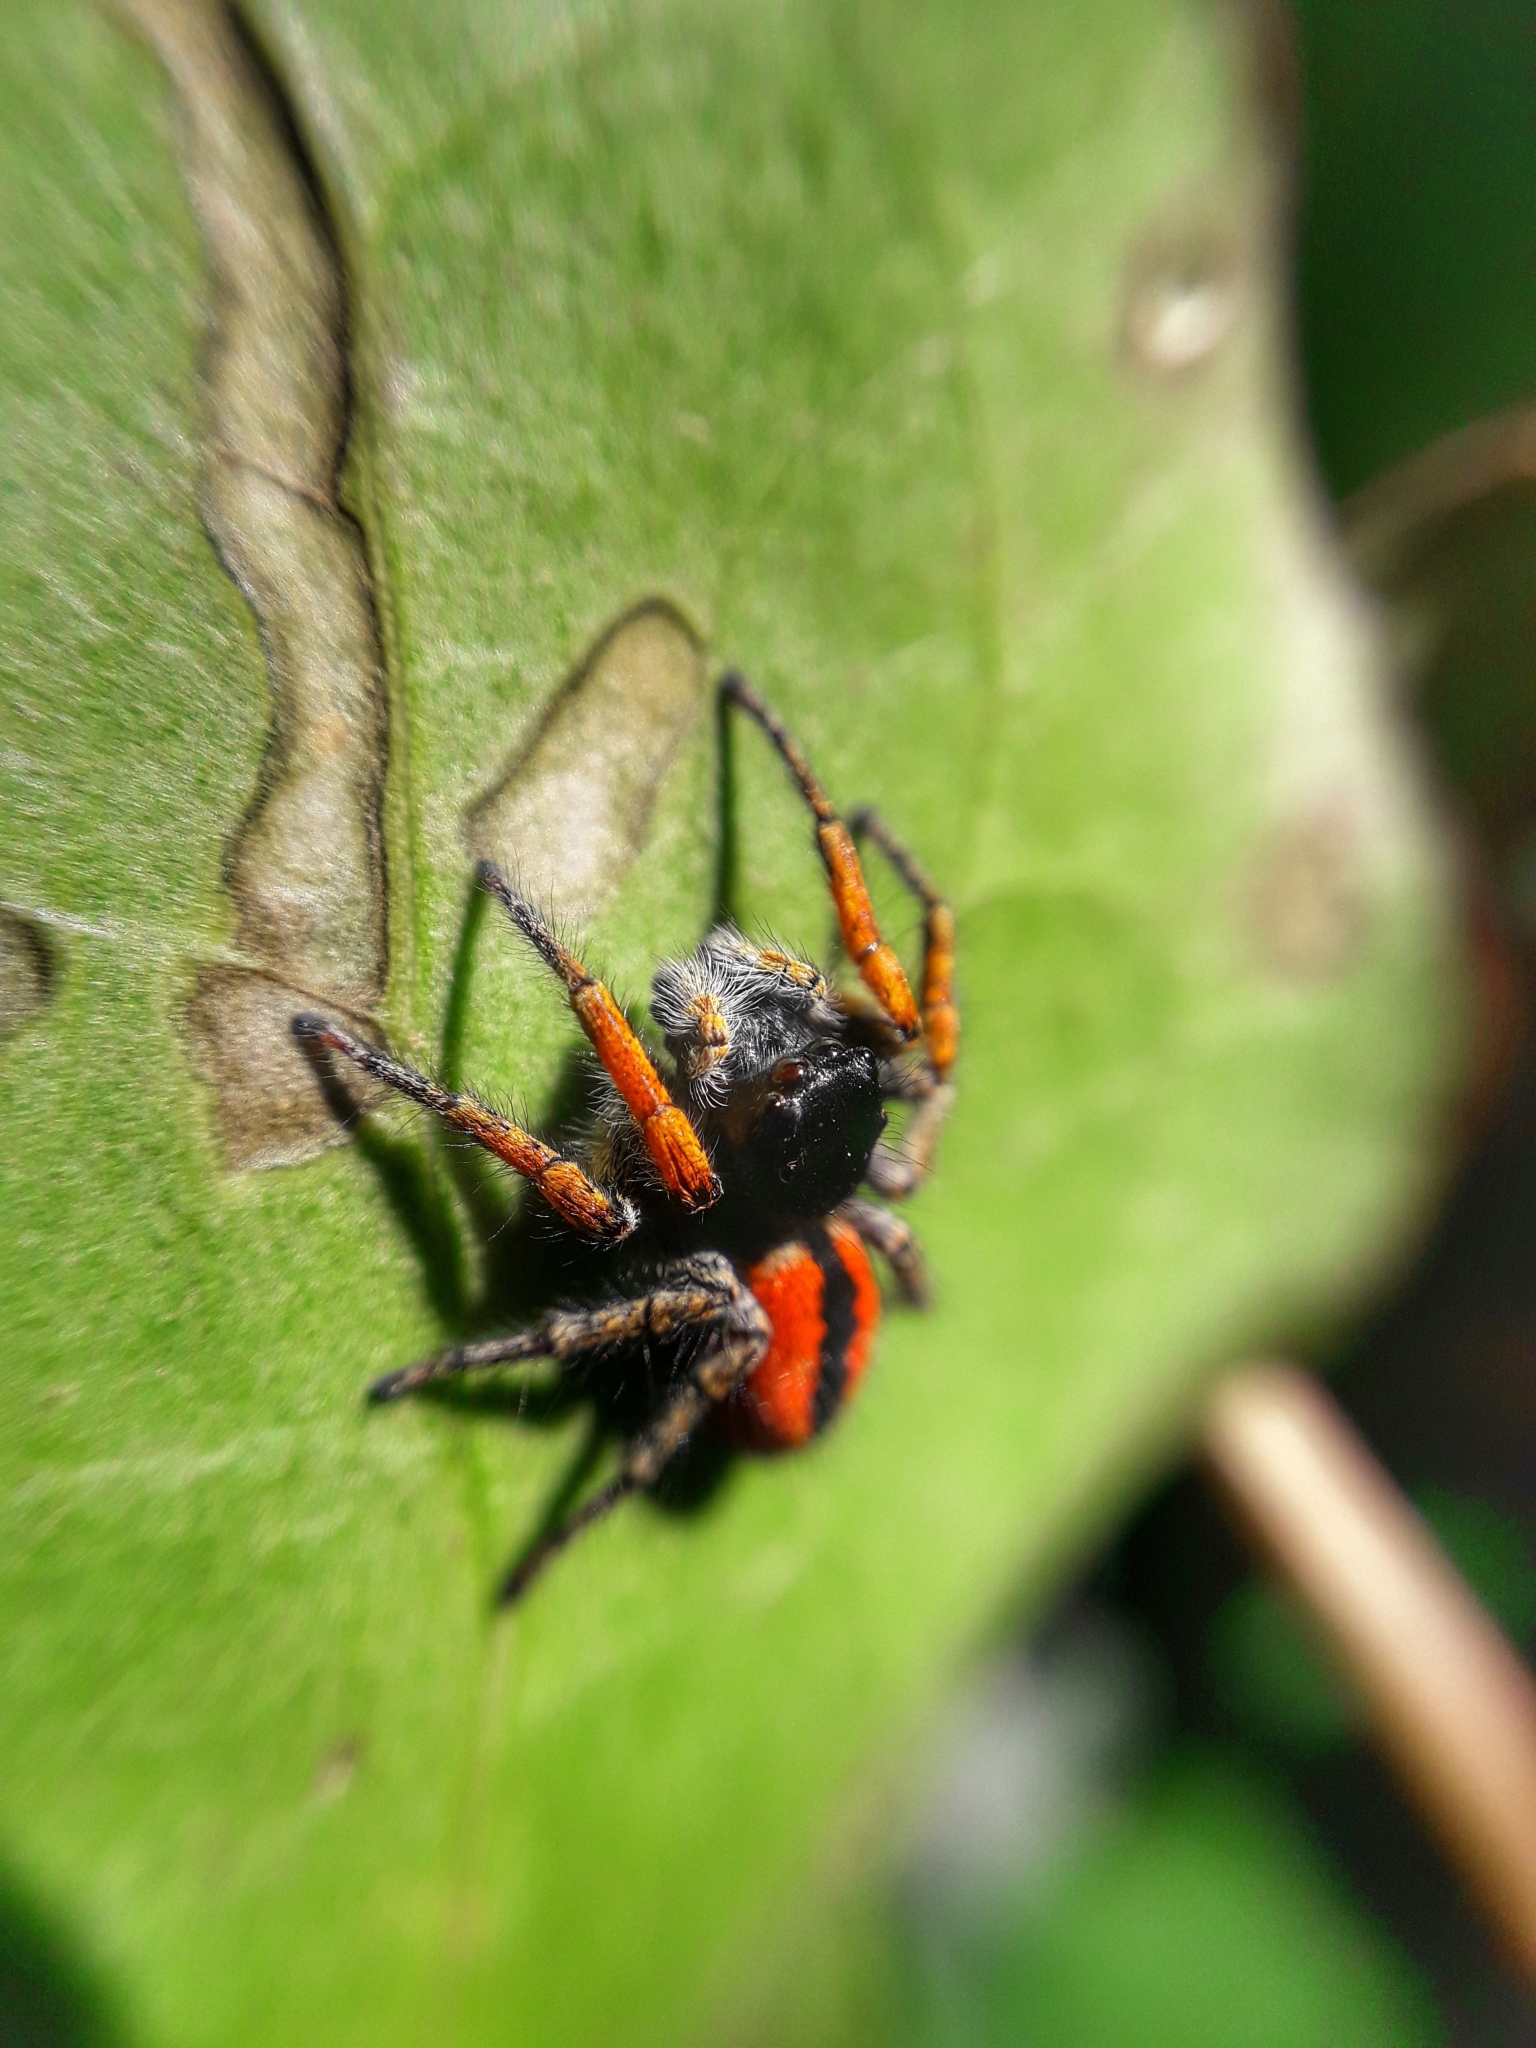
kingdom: Animalia
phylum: Arthropoda
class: Arachnida
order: Araneae
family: Salticidae
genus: Philaeus
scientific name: Philaeus chrysops
